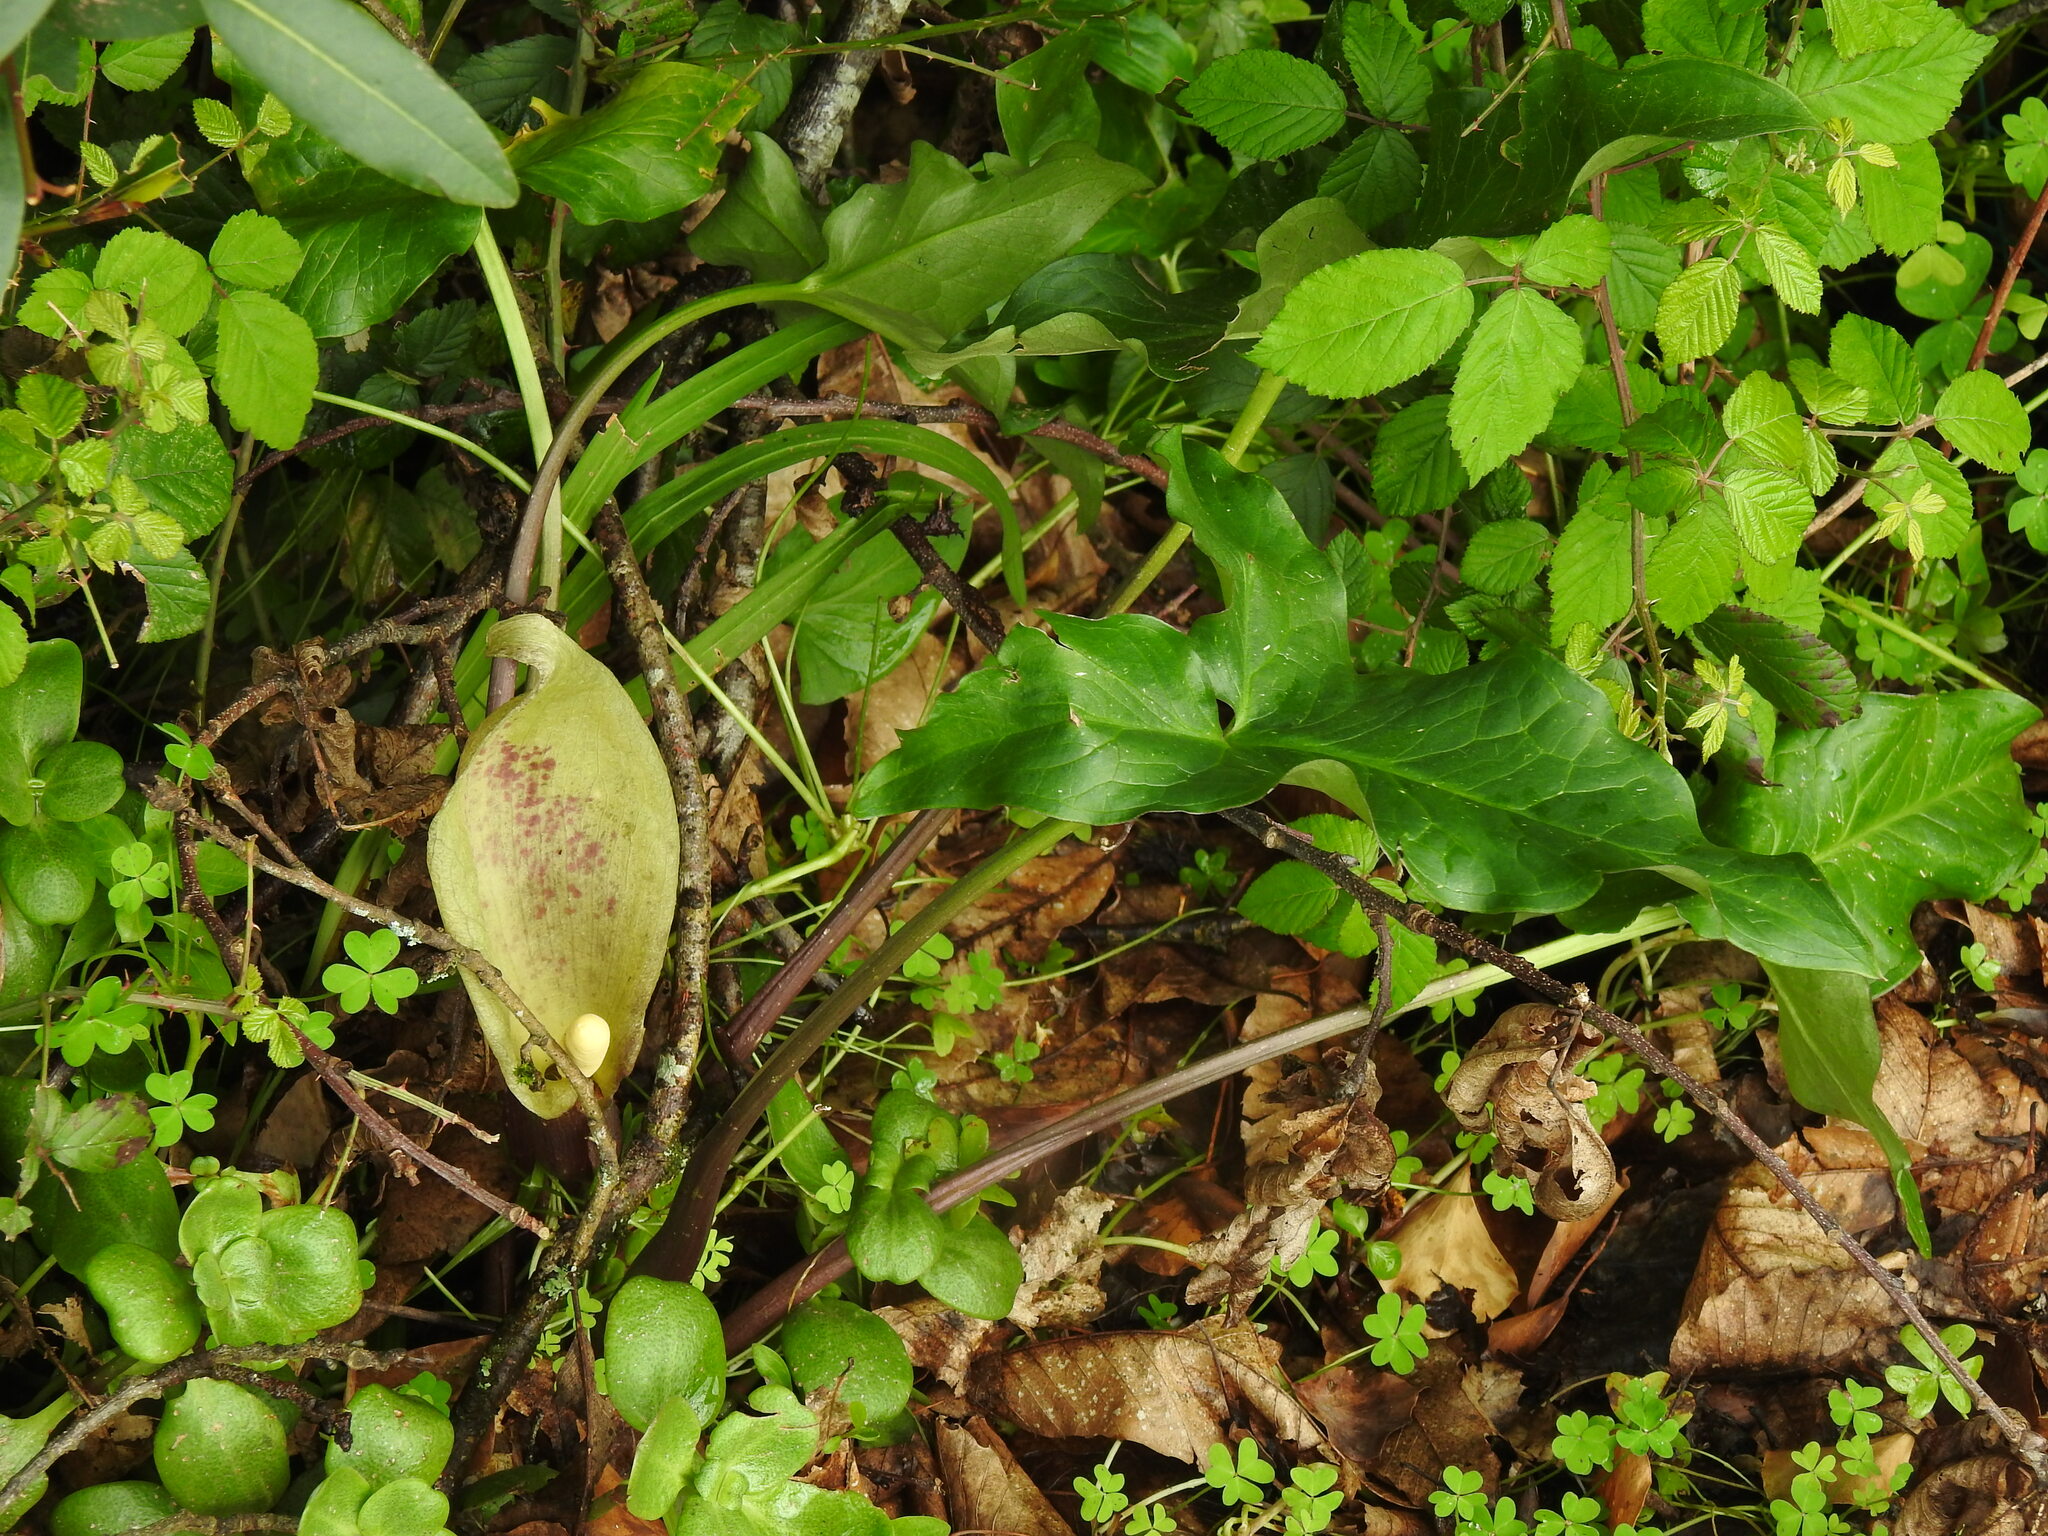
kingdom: Plantae
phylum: Tracheophyta
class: Liliopsida
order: Alismatales
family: Araceae
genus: Arum
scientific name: Arum italicum
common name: Italian lords-and-ladies
